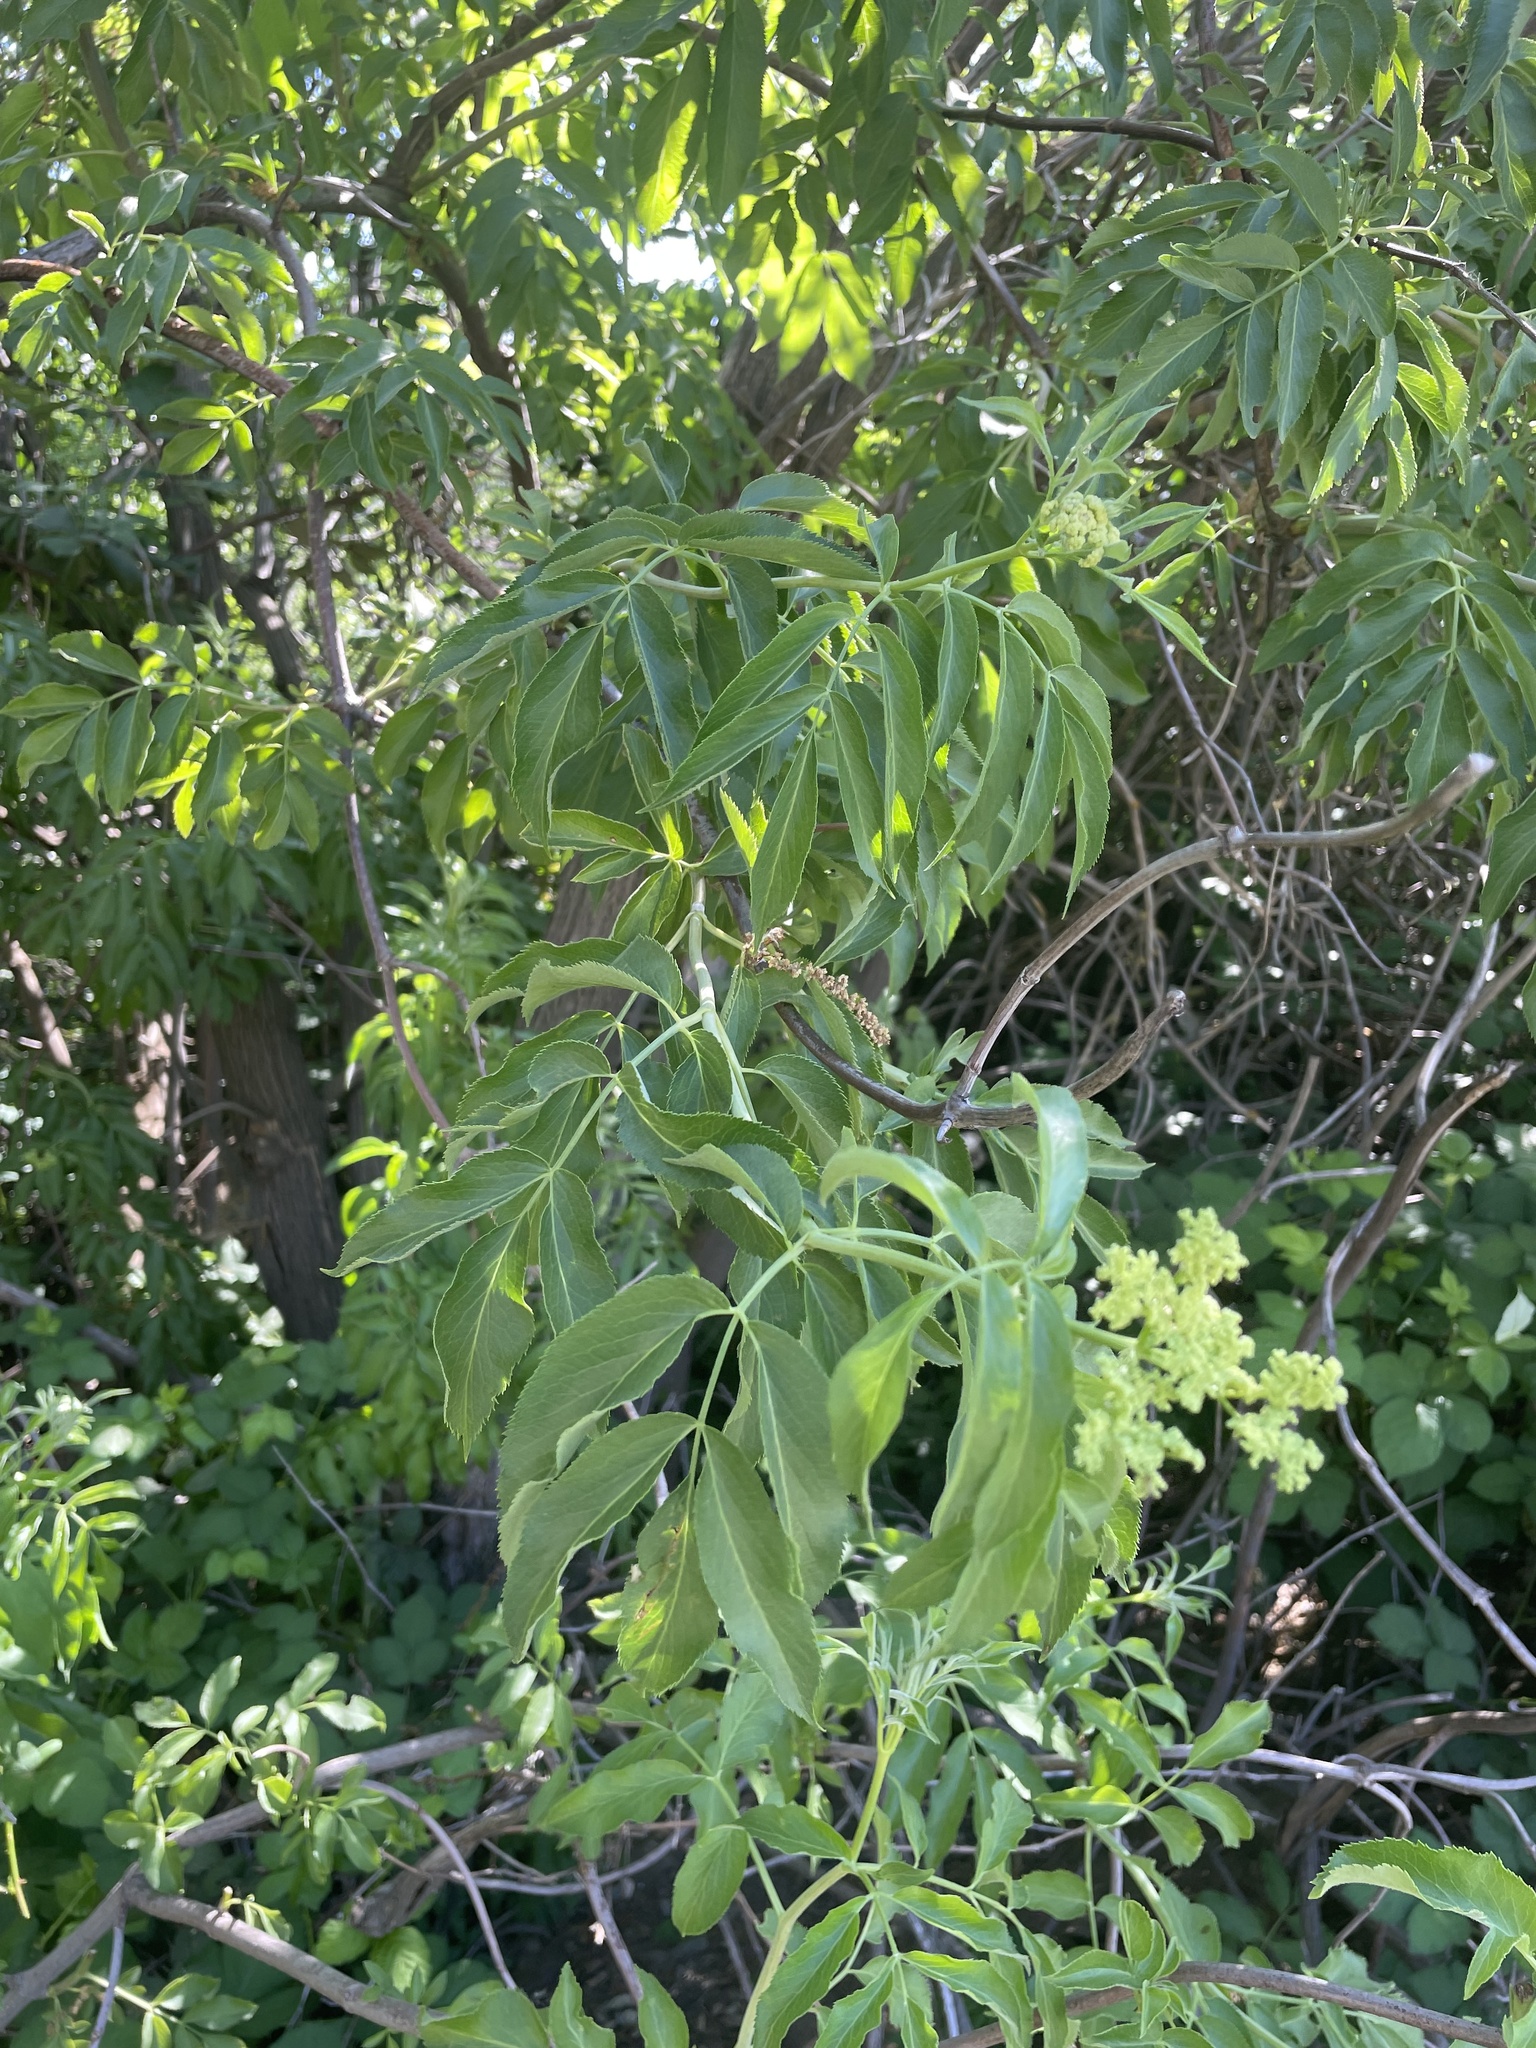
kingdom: Plantae
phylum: Tracheophyta
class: Magnoliopsida
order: Dipsacales
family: Viburnaceae
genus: Sambucus
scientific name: Sambucus cerulea
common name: Blue elder
